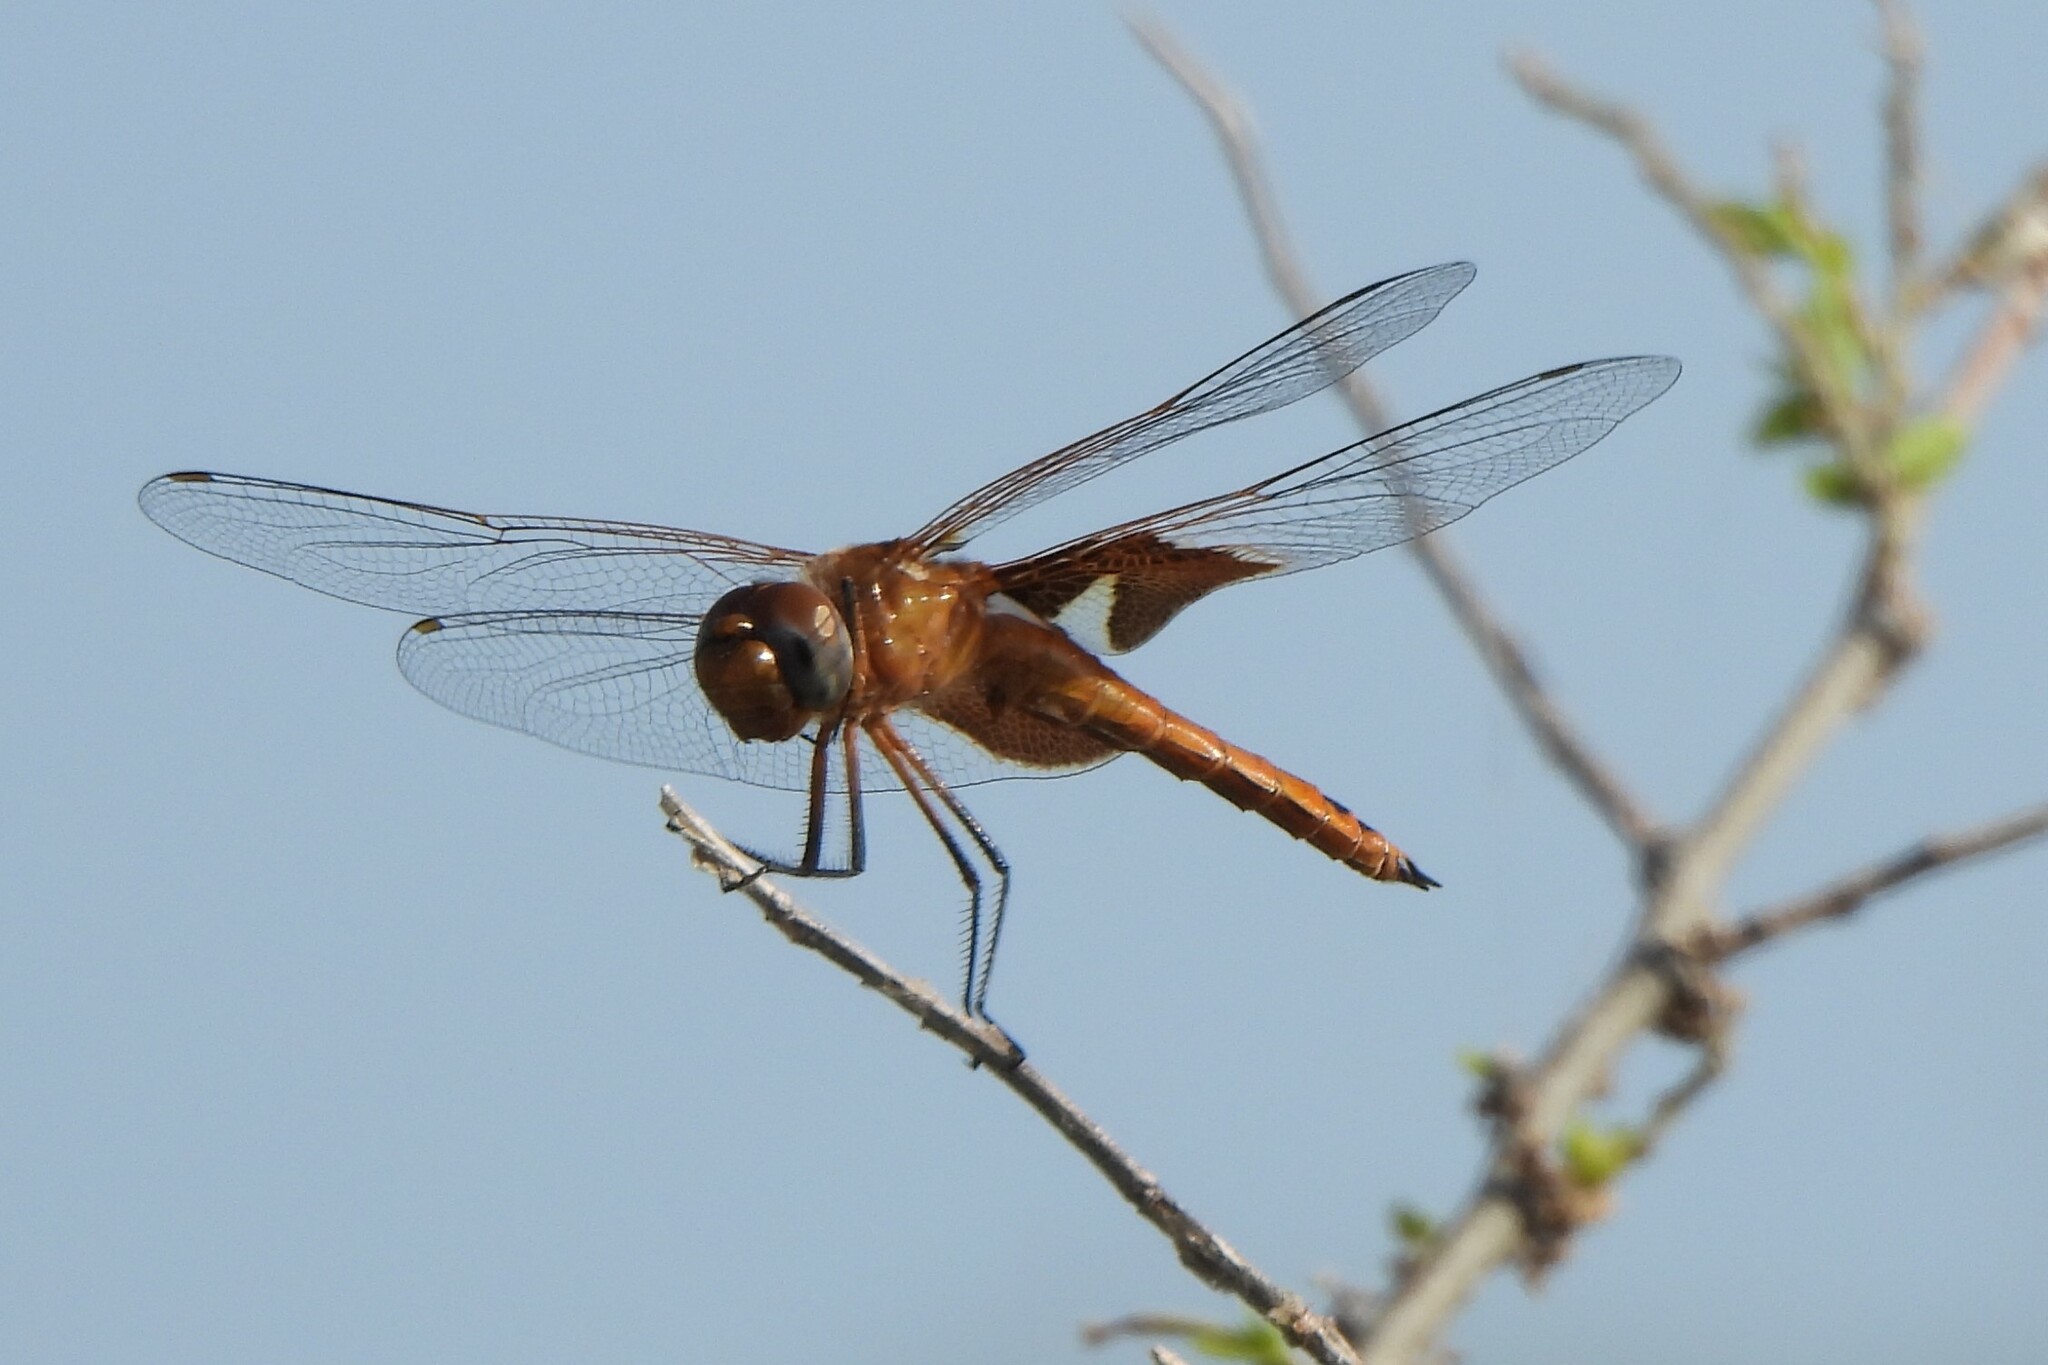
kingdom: Animalia
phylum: Arthropoda
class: Insecta
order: Odonata
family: Libellulidae
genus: Tramea
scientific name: Tramea onusta
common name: Red saddlebags
